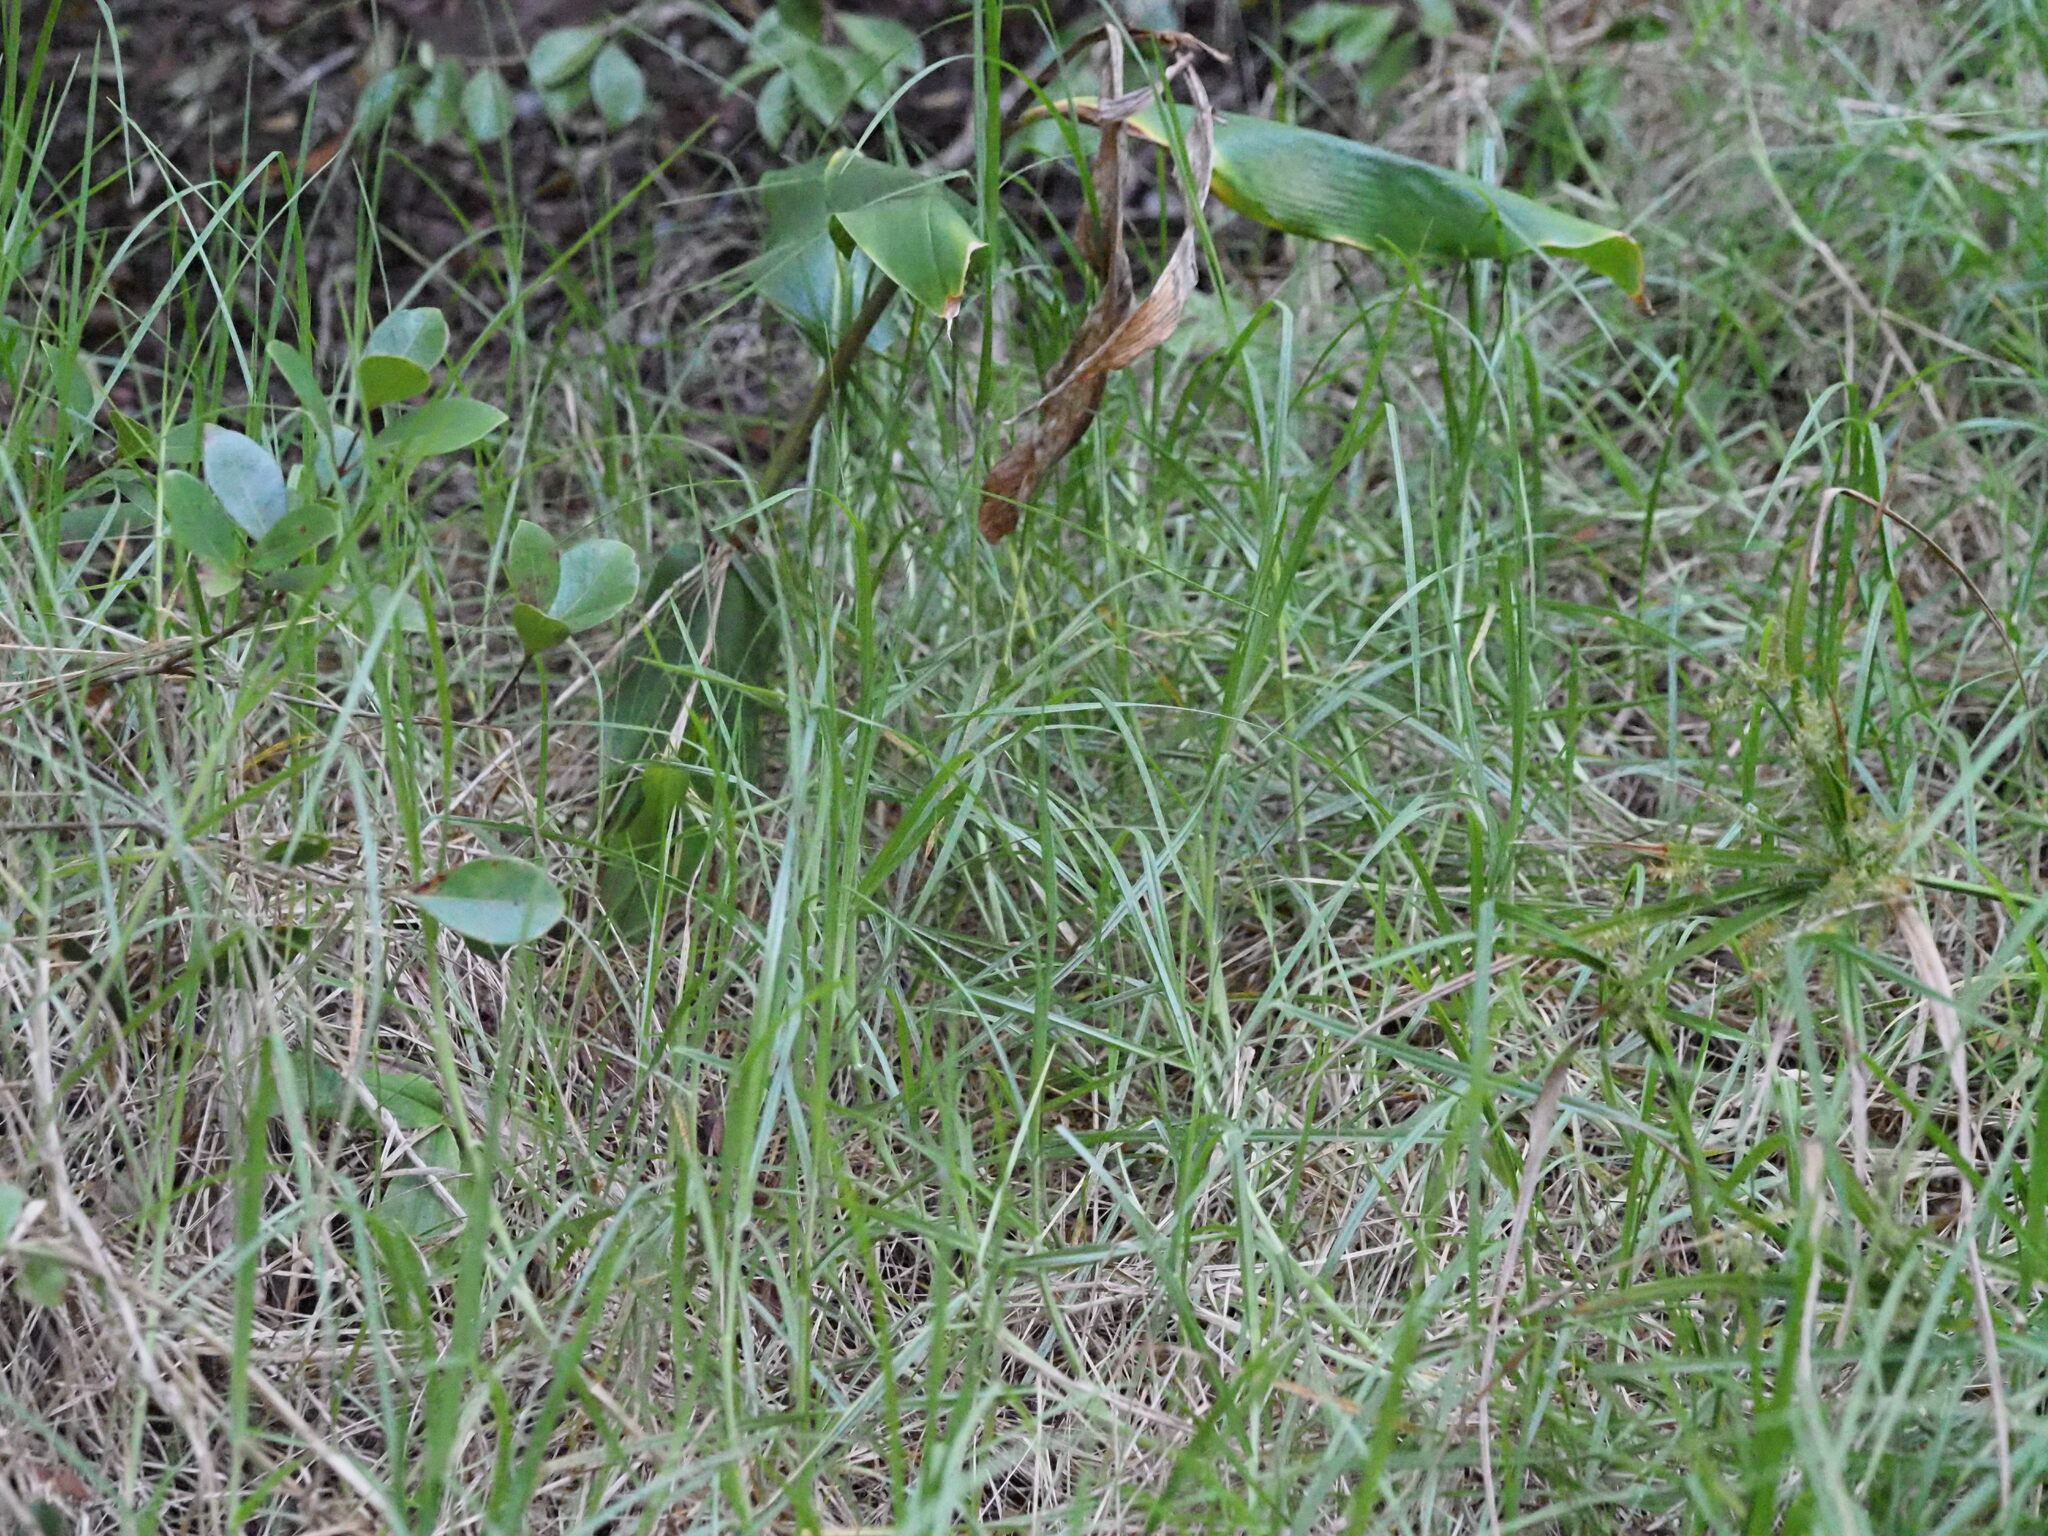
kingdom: Plantae
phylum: Tracheophyta
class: Liliopsida
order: Poales
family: Poaceae
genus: Cenchrus
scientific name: Cenchrus clandestinus
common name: Kikuyugrass
